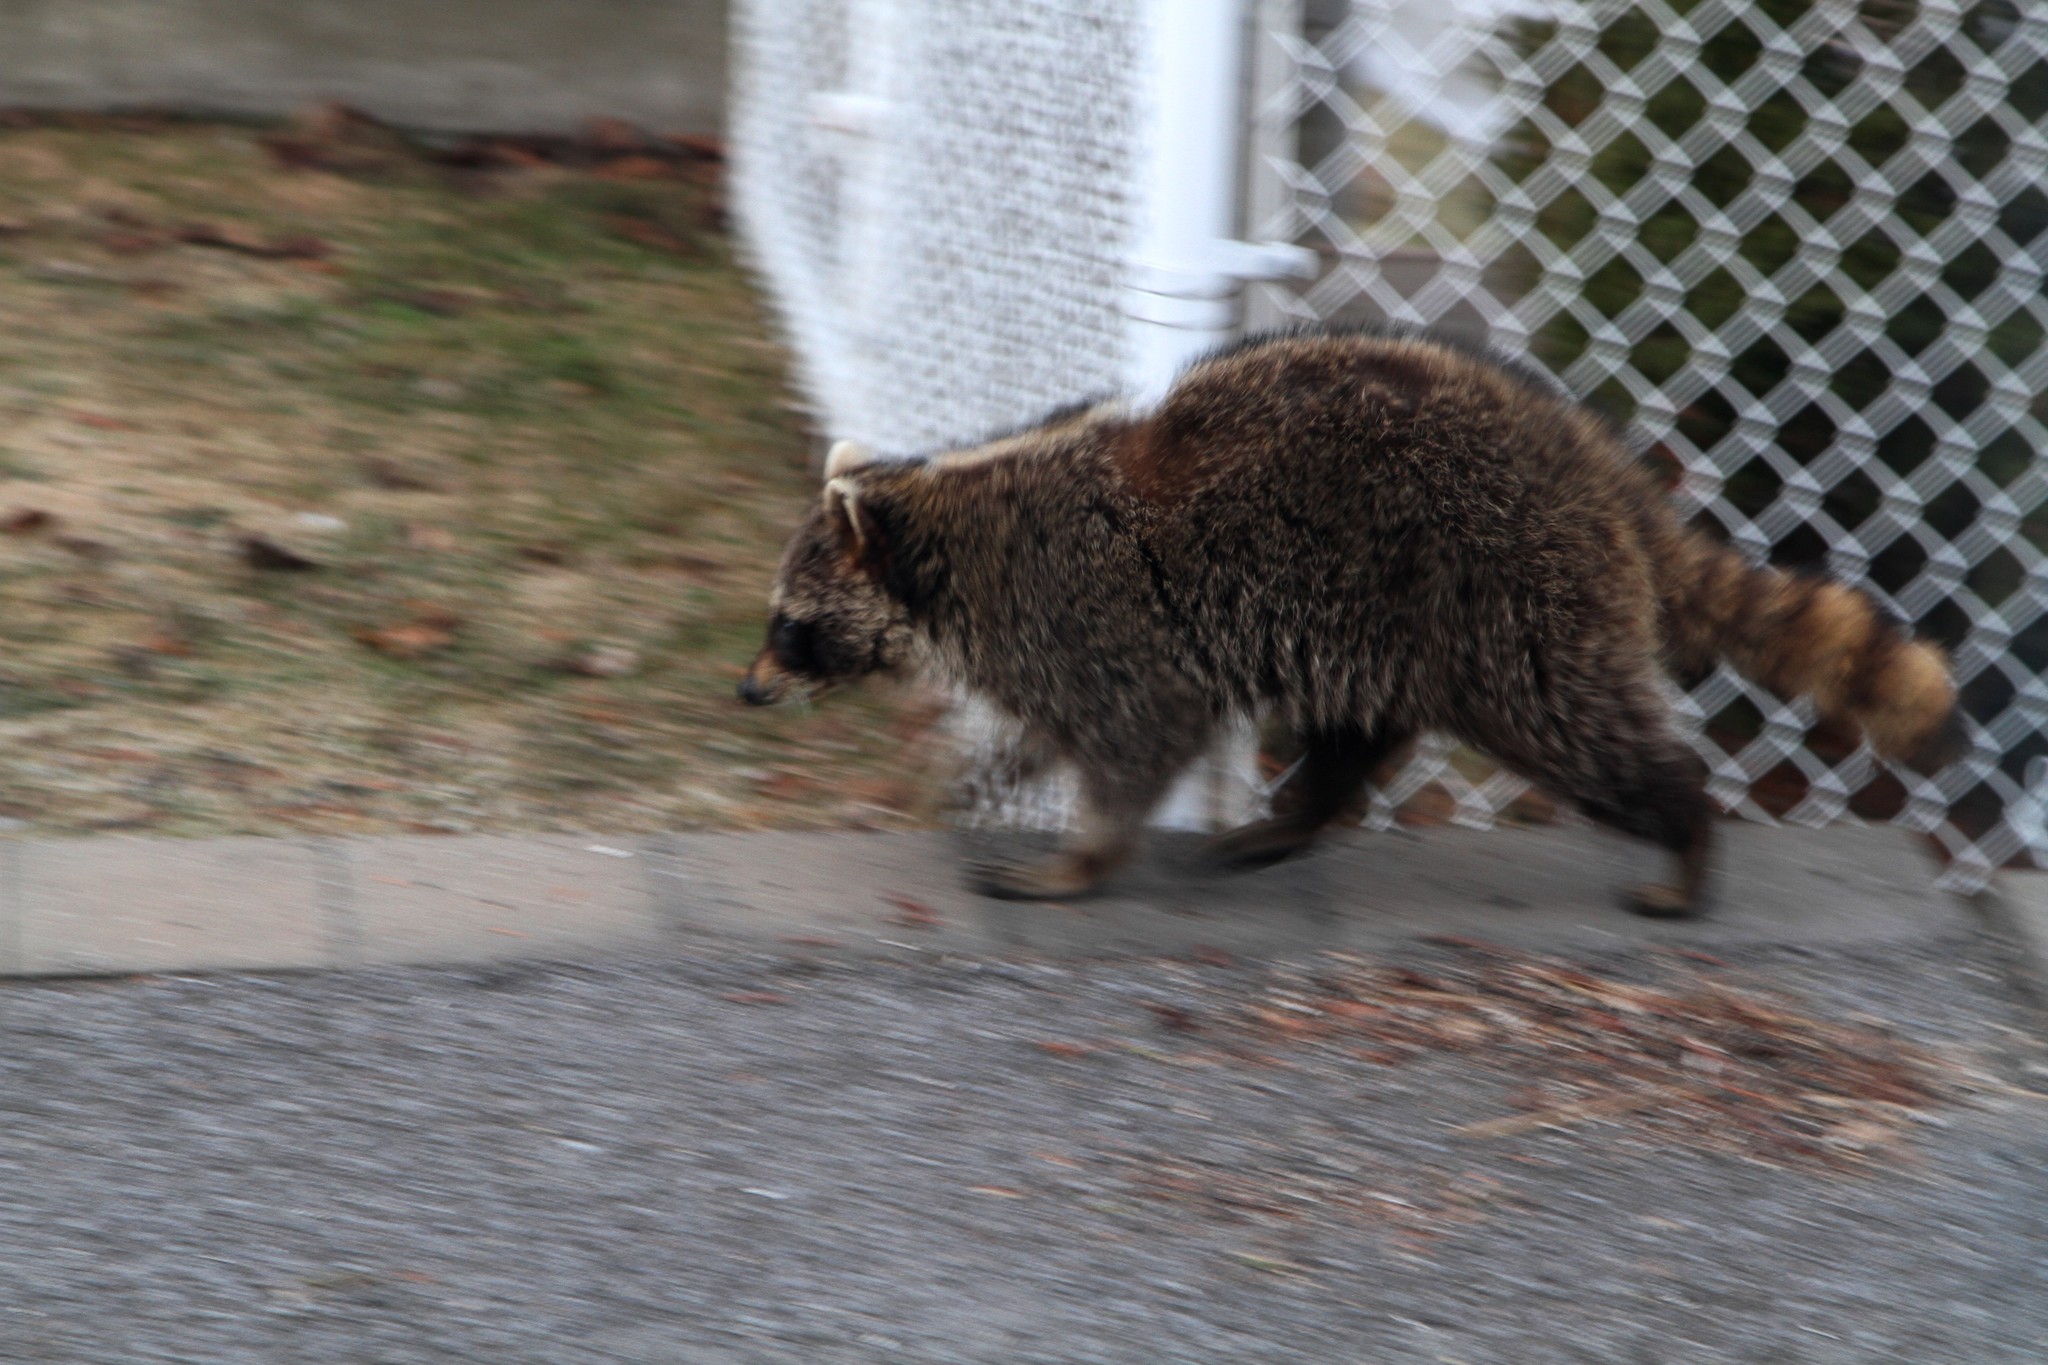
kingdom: Animalia
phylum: Chordata
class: Mammalia
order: Carnivora
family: Procyonidae
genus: Procyon
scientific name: Procyon lotor
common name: Raccoon
